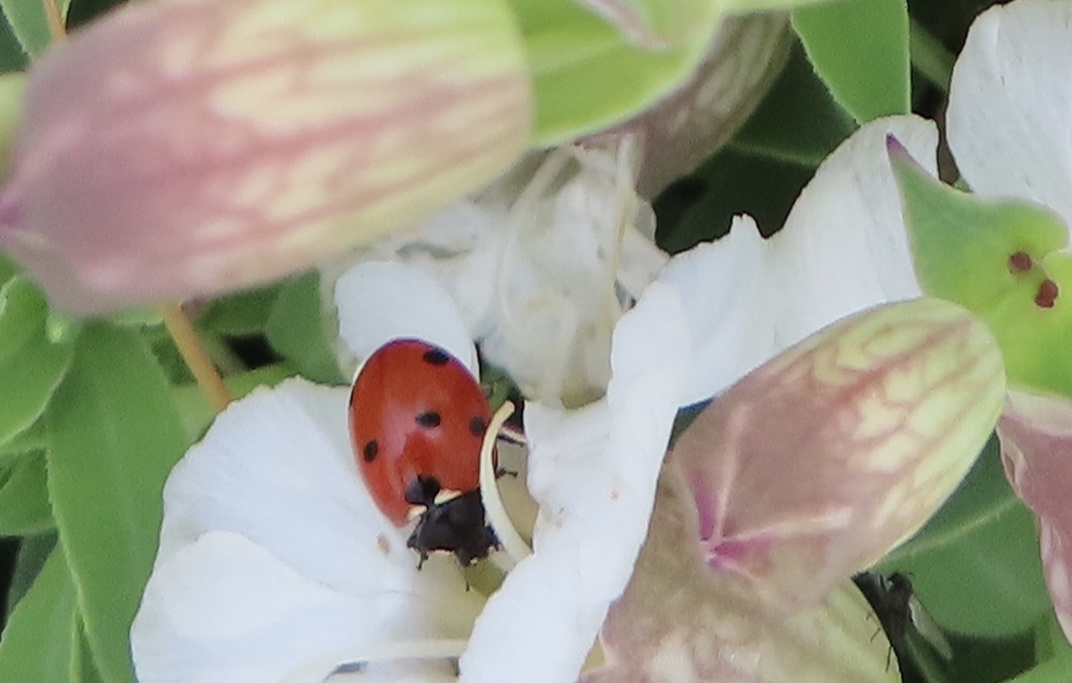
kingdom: Animalia
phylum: Arthropoda
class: Insecta
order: Coleoptera
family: Coccinellidae
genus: Coccinella
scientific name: Coccinella septempunctata
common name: Sevenspotted lady beetle
